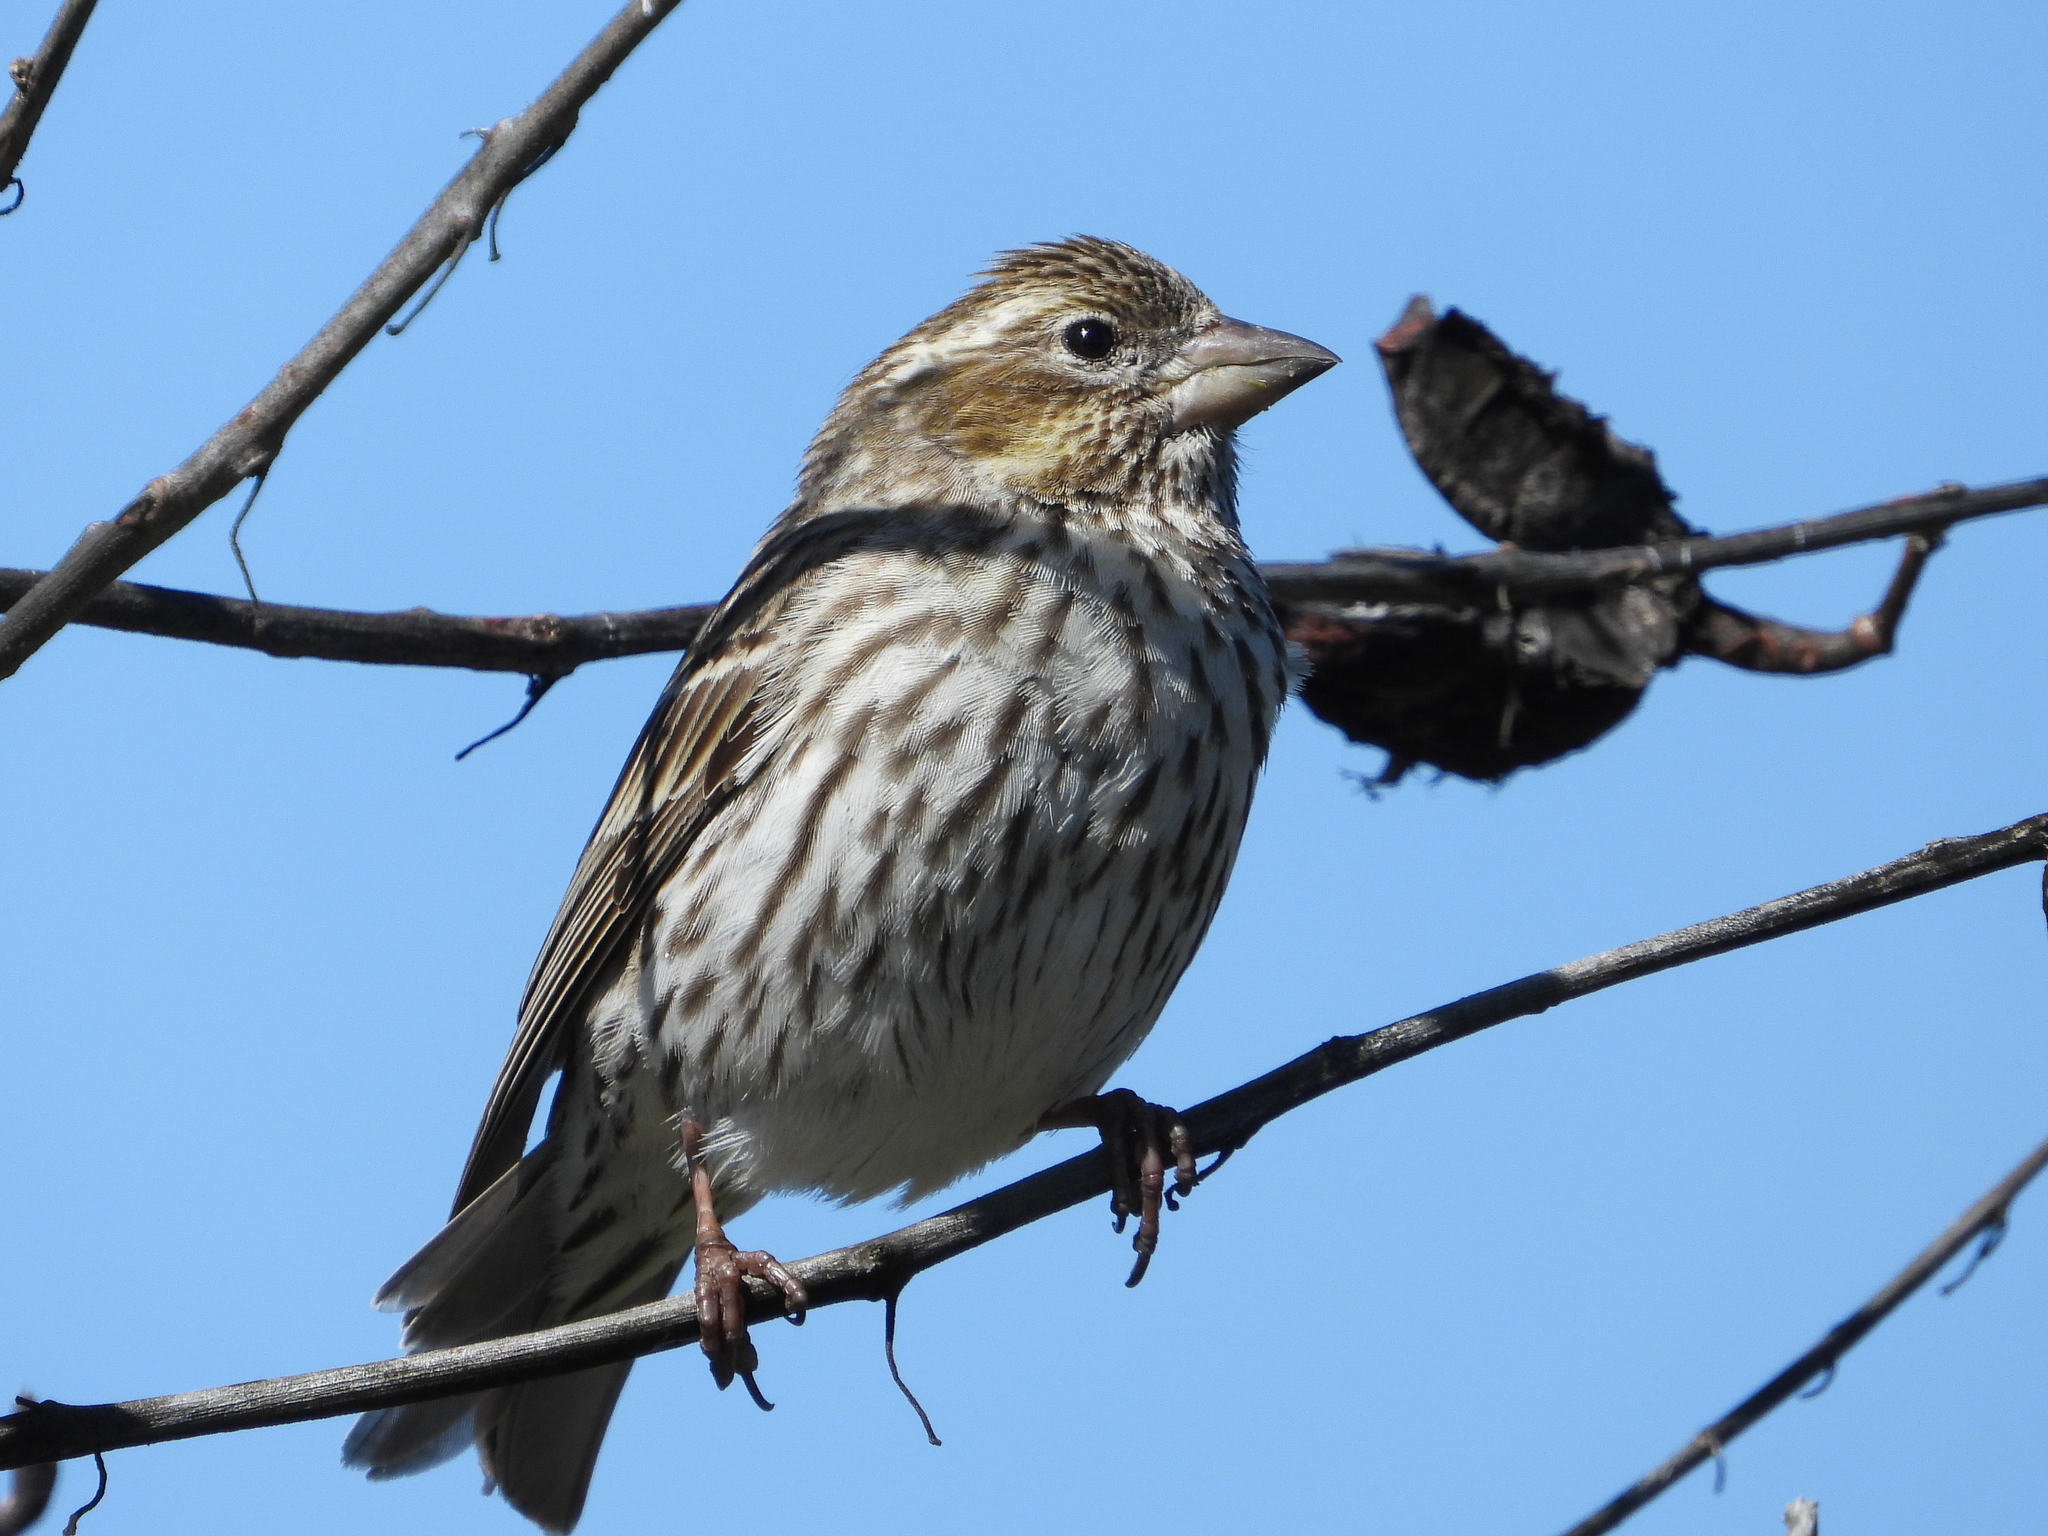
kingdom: Animalia
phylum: Chordata
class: Aves
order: Passeriformes
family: Fringillidae
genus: Haemorhous
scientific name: Haemorhous cassinii
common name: Cassin's finch
